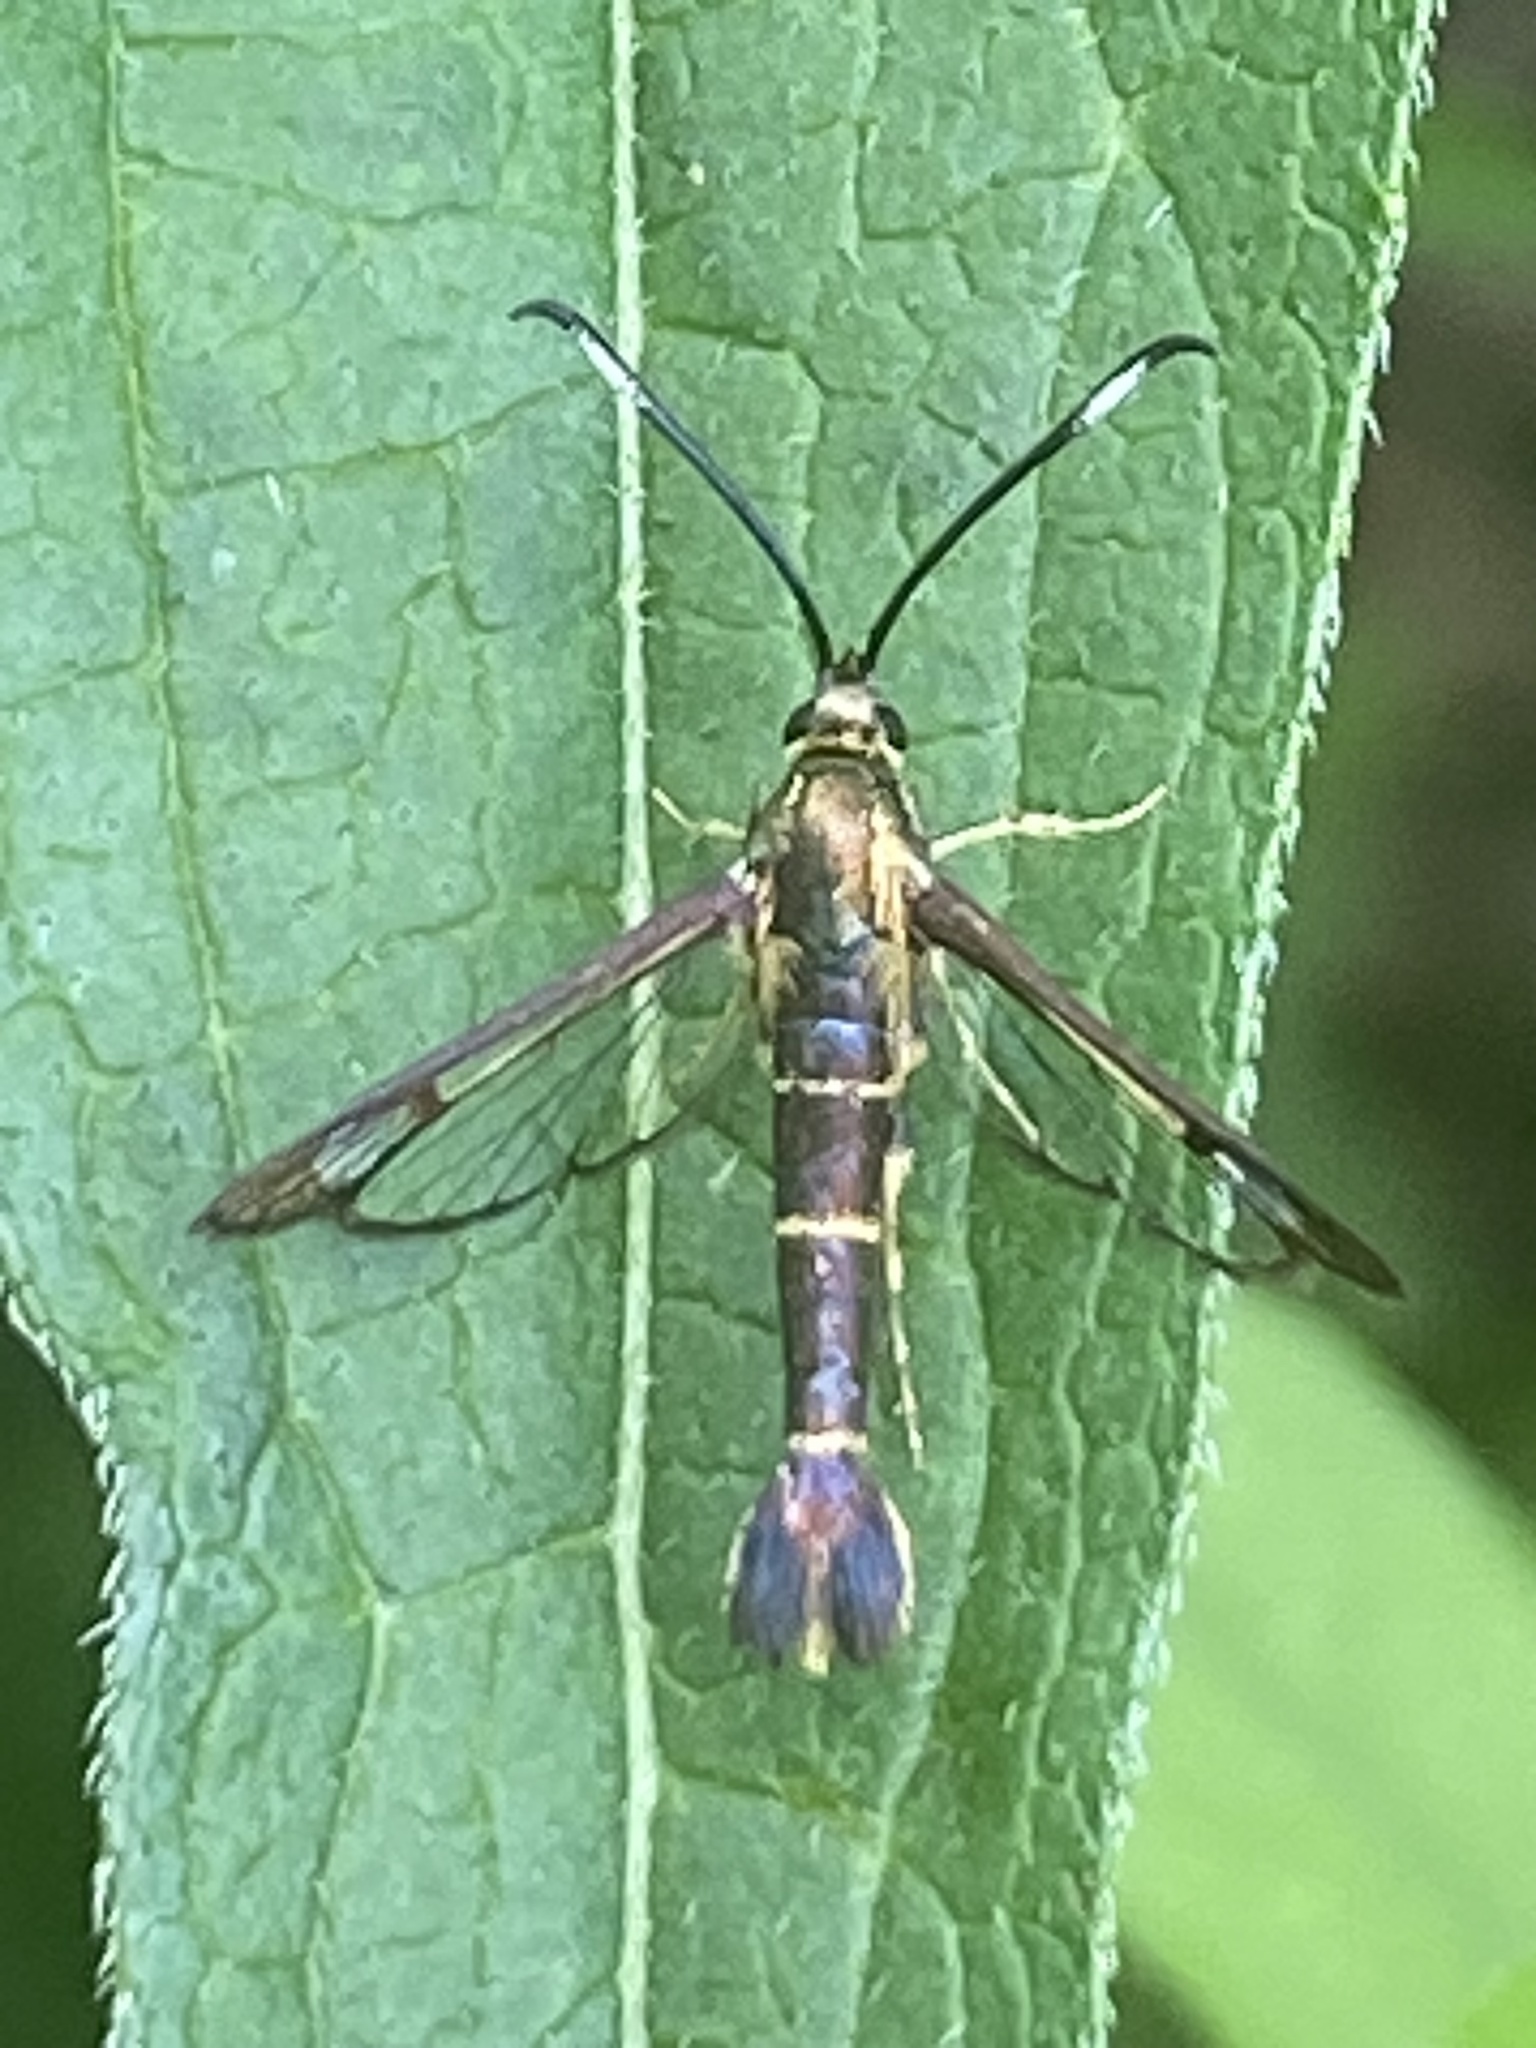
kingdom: Animalia
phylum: Arthropoda
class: Insecta
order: Lepidoptera
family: Sesiidae
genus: Carmenta
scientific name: Carmenta bassiformis
